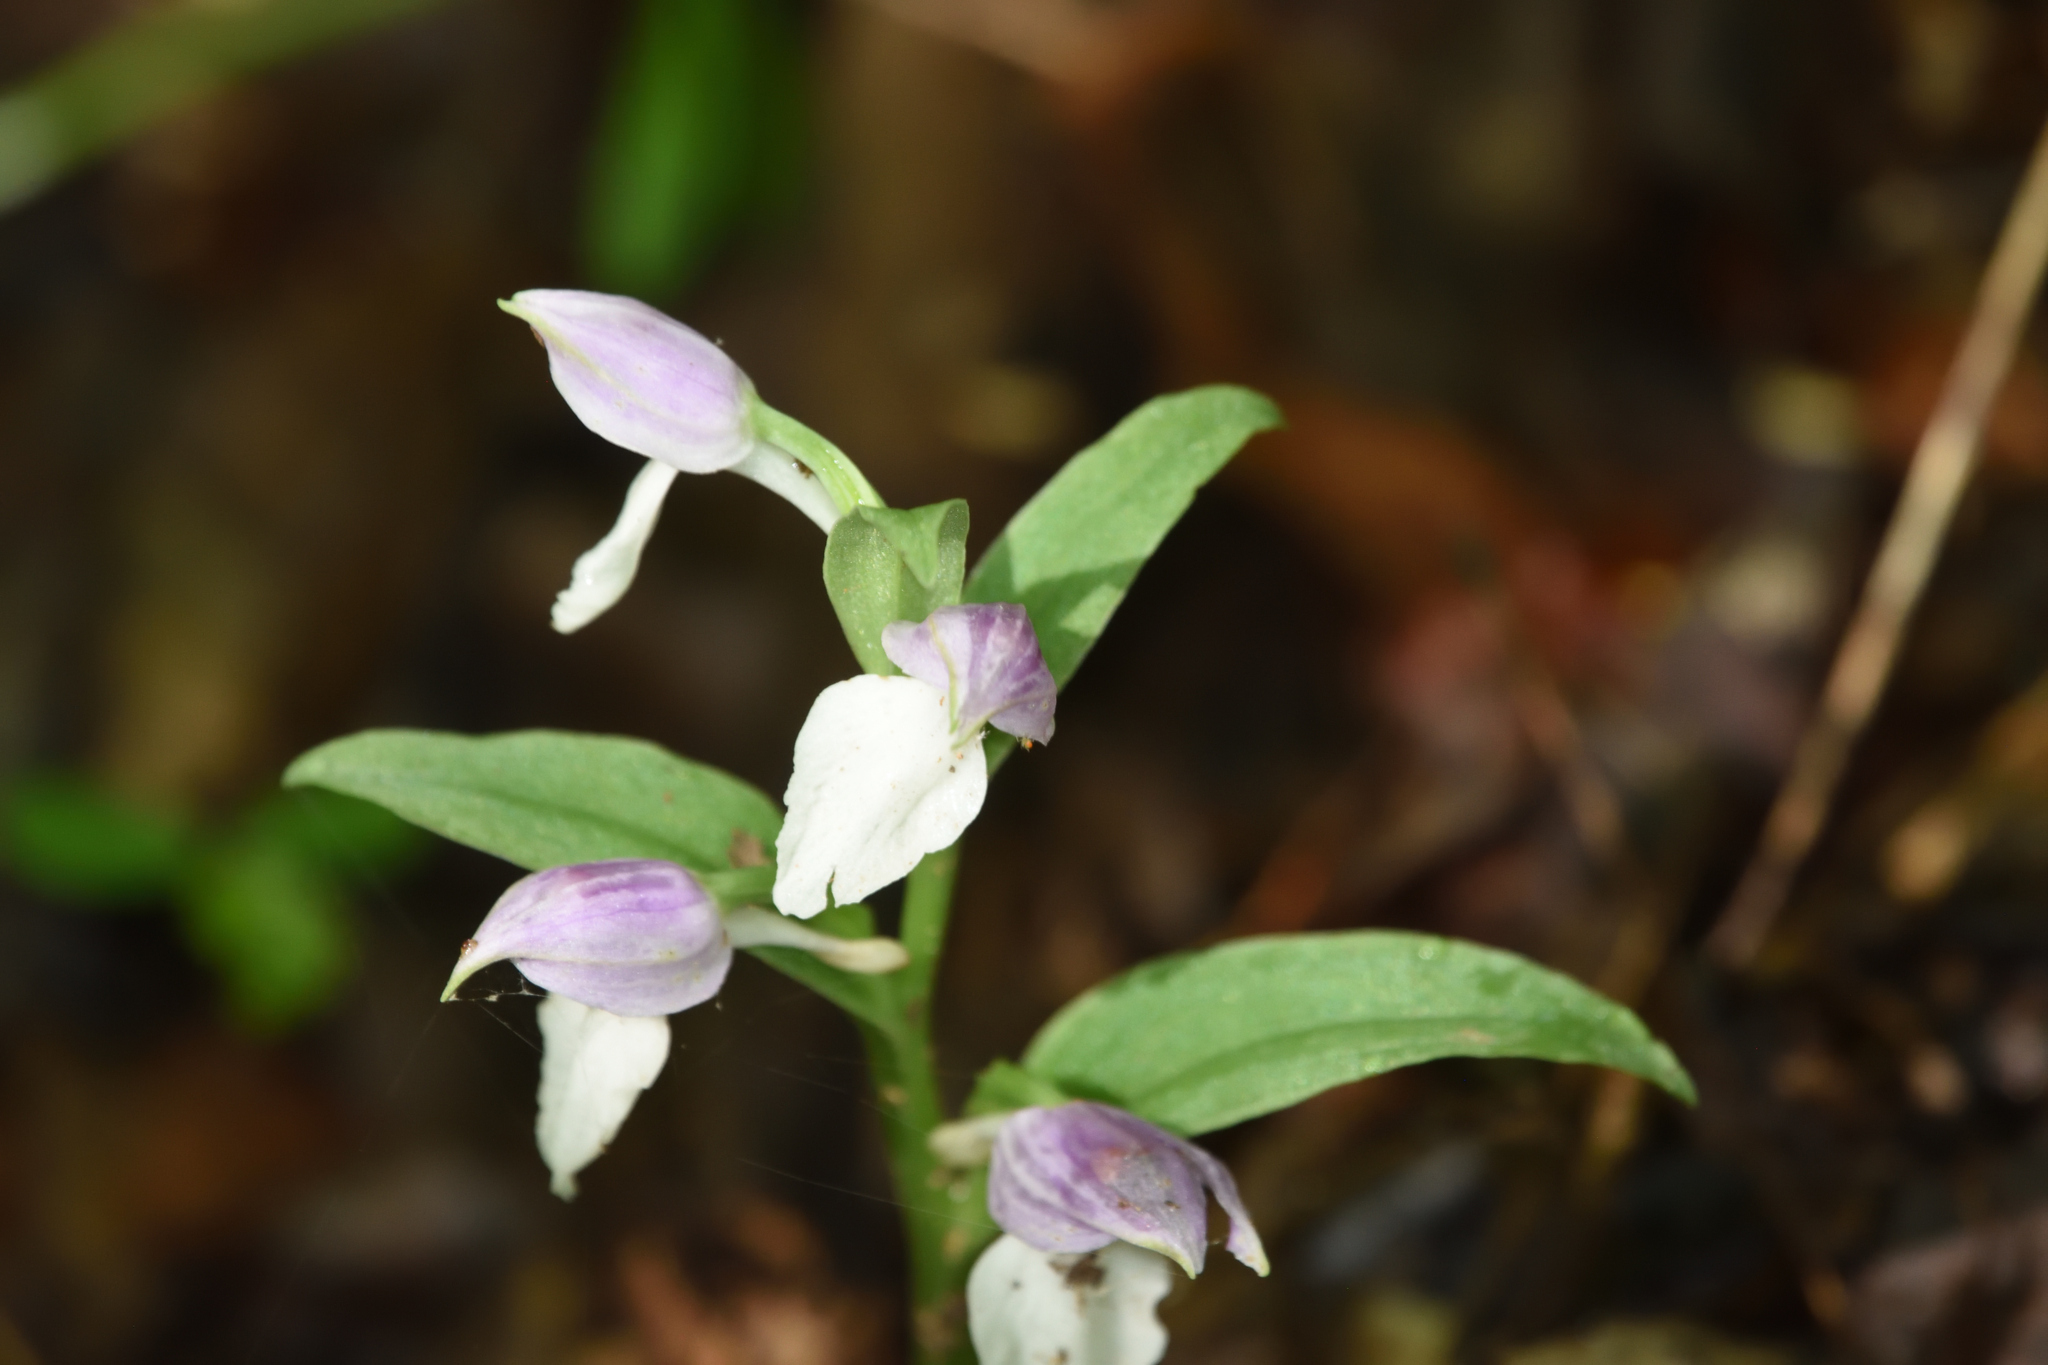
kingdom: Plantae
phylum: Tracheophyta
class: Liliopsida
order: Asparagales
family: Orchidaceae
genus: Galearis
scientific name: Galearis spectabilis
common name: Purple-hooded orchis
